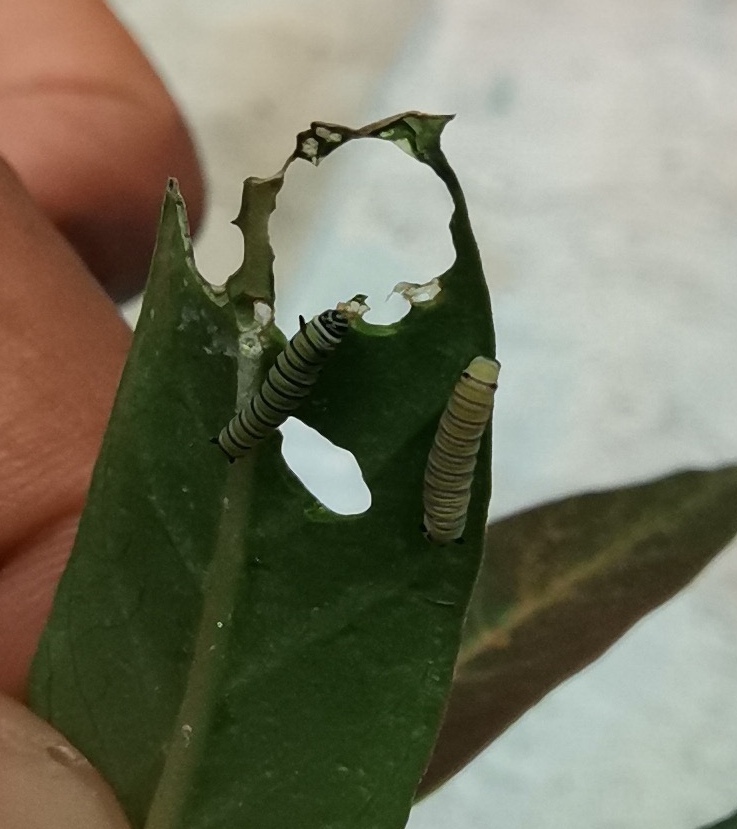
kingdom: Animalia
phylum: Arthropoda
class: Insecta
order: Lepidoptera
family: Nymphalidae
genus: Danaus
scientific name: Danaus plexippus
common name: Monarch
